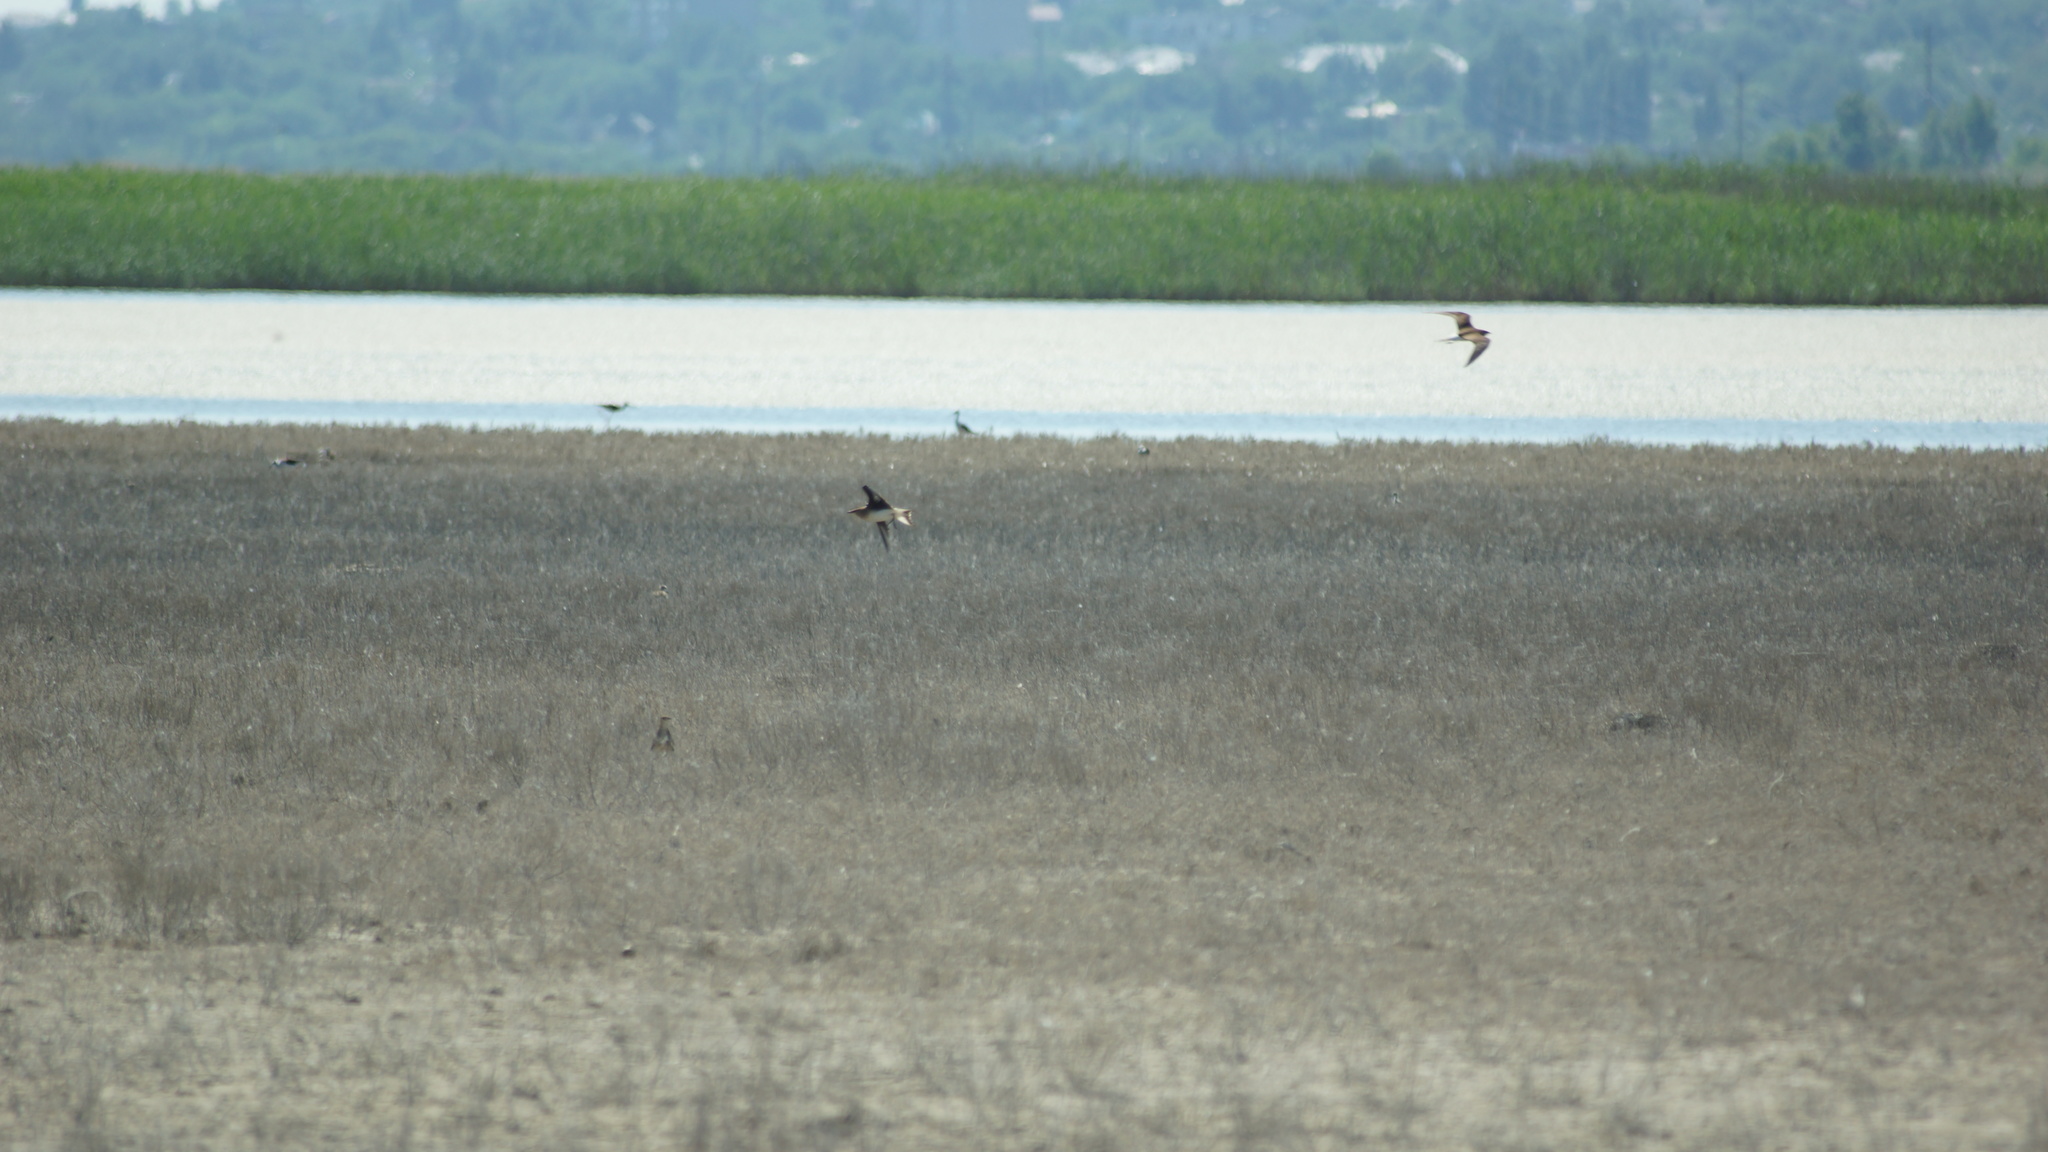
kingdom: Animalia
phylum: Chordata
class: Aves
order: Charadriiformes
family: Glareolidae
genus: Glareola
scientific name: Glareola nordmanni
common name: Black-winged pratincole
